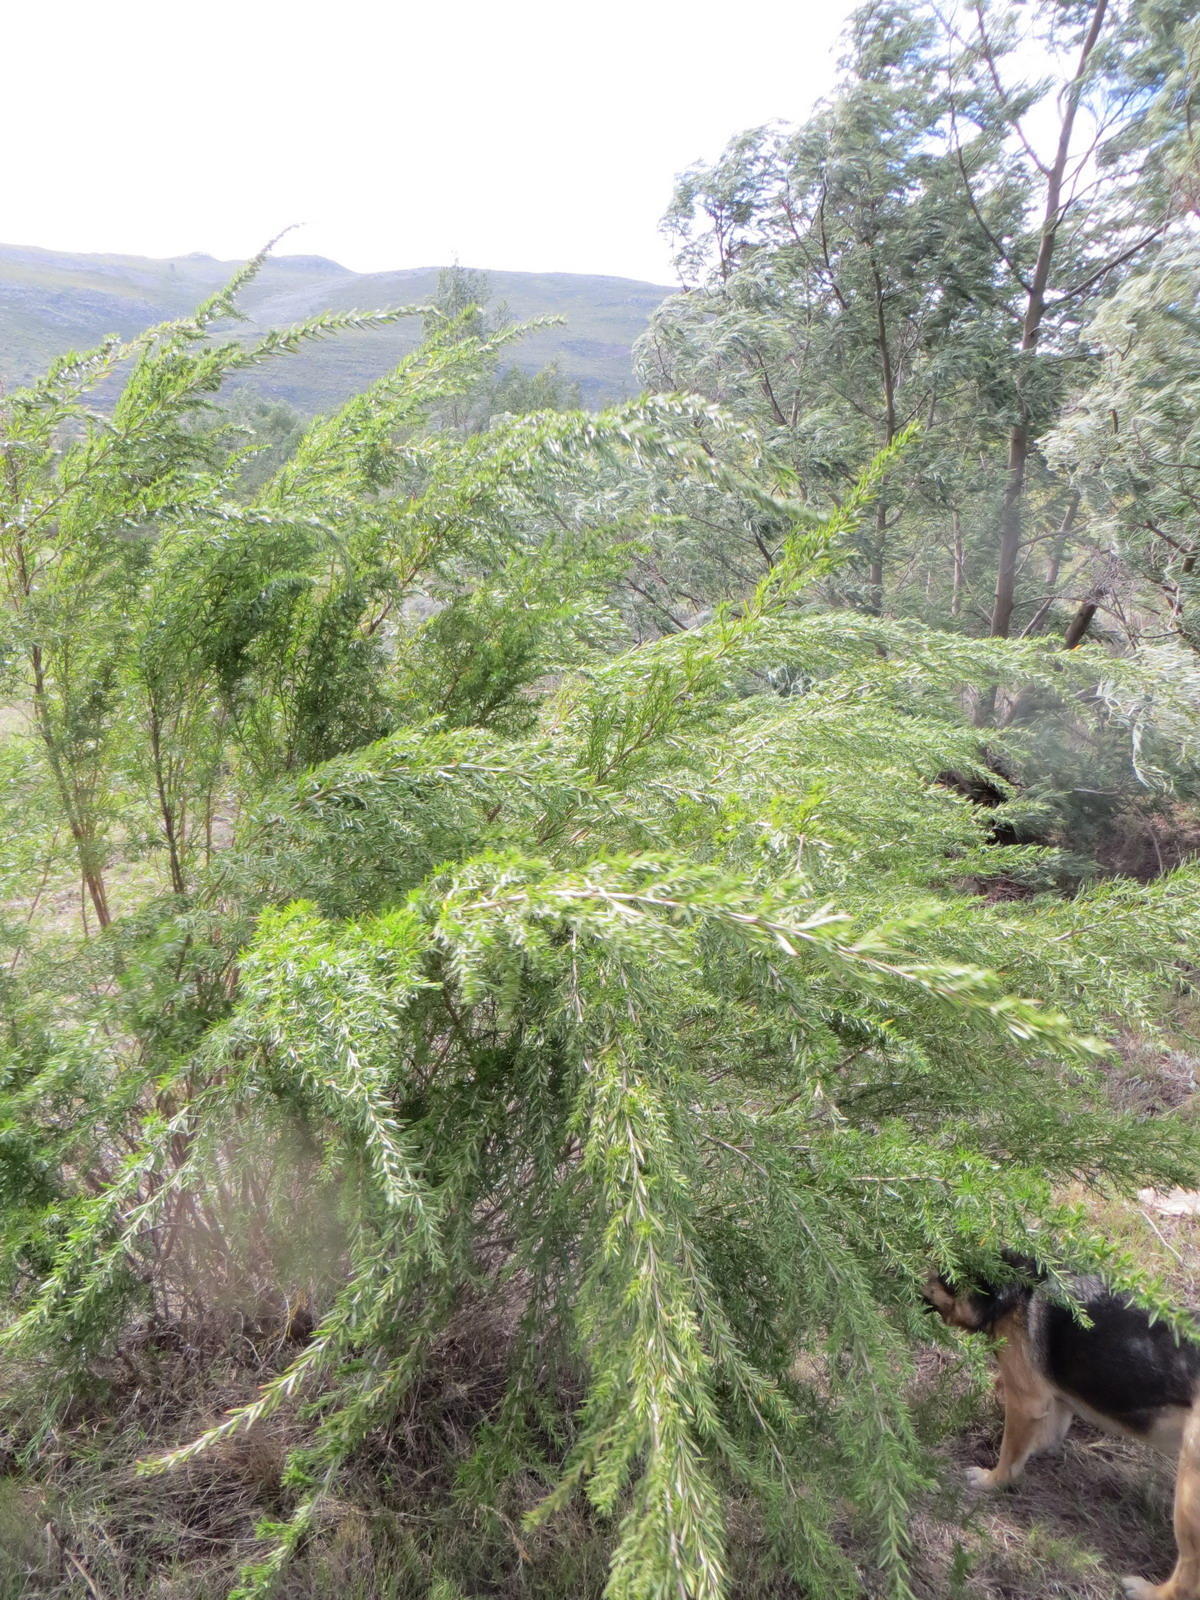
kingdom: Plantae
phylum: Tracheophyta
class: Magnoliopsida
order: Rosales
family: Rosaceae
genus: Cliffortia
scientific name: Cliffortia strobilifera
